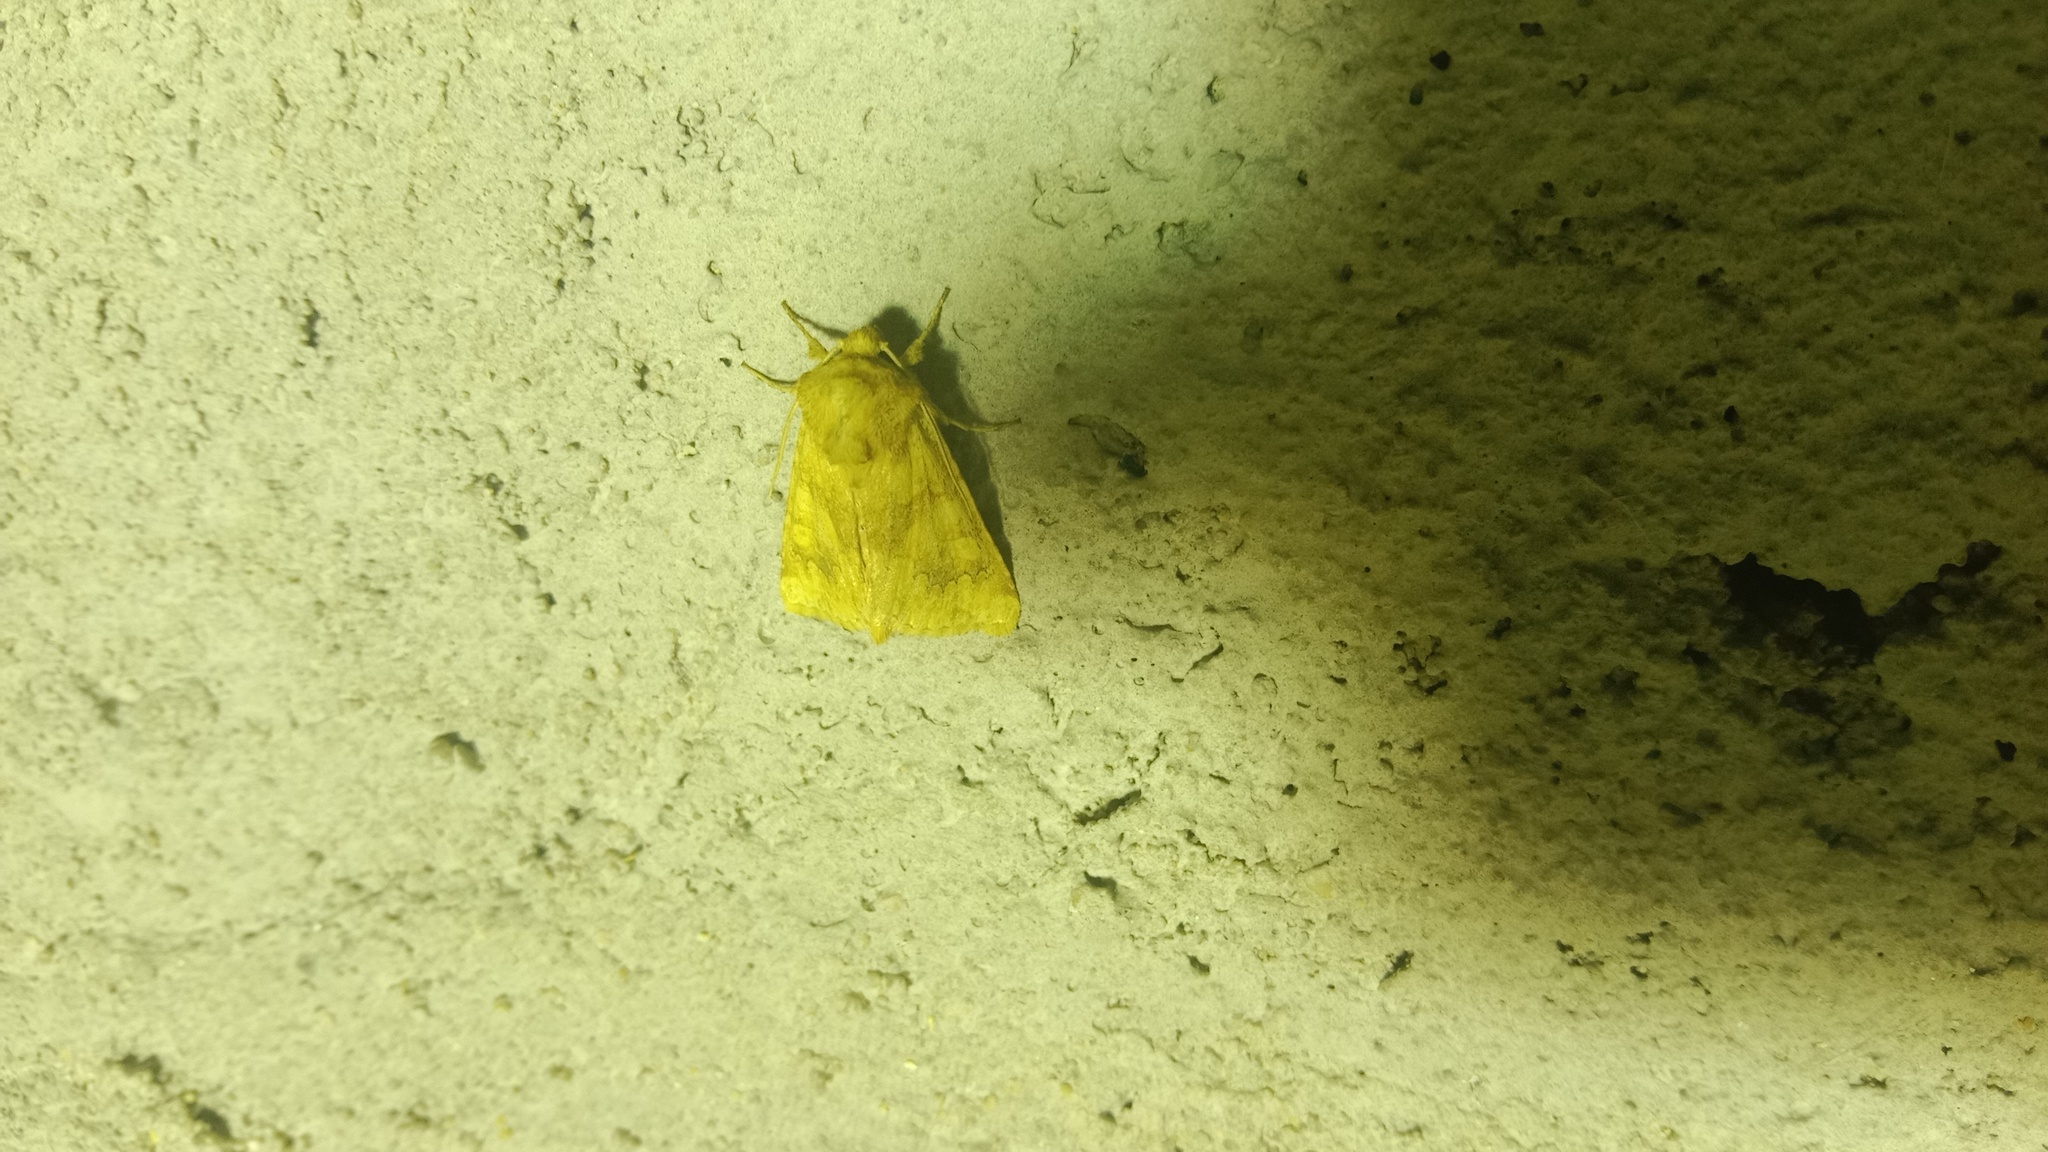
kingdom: Animalia
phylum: Arthropoda
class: Insecta
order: Lepidoptera
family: Noctuidae
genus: Conisania
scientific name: Conisania luteago
